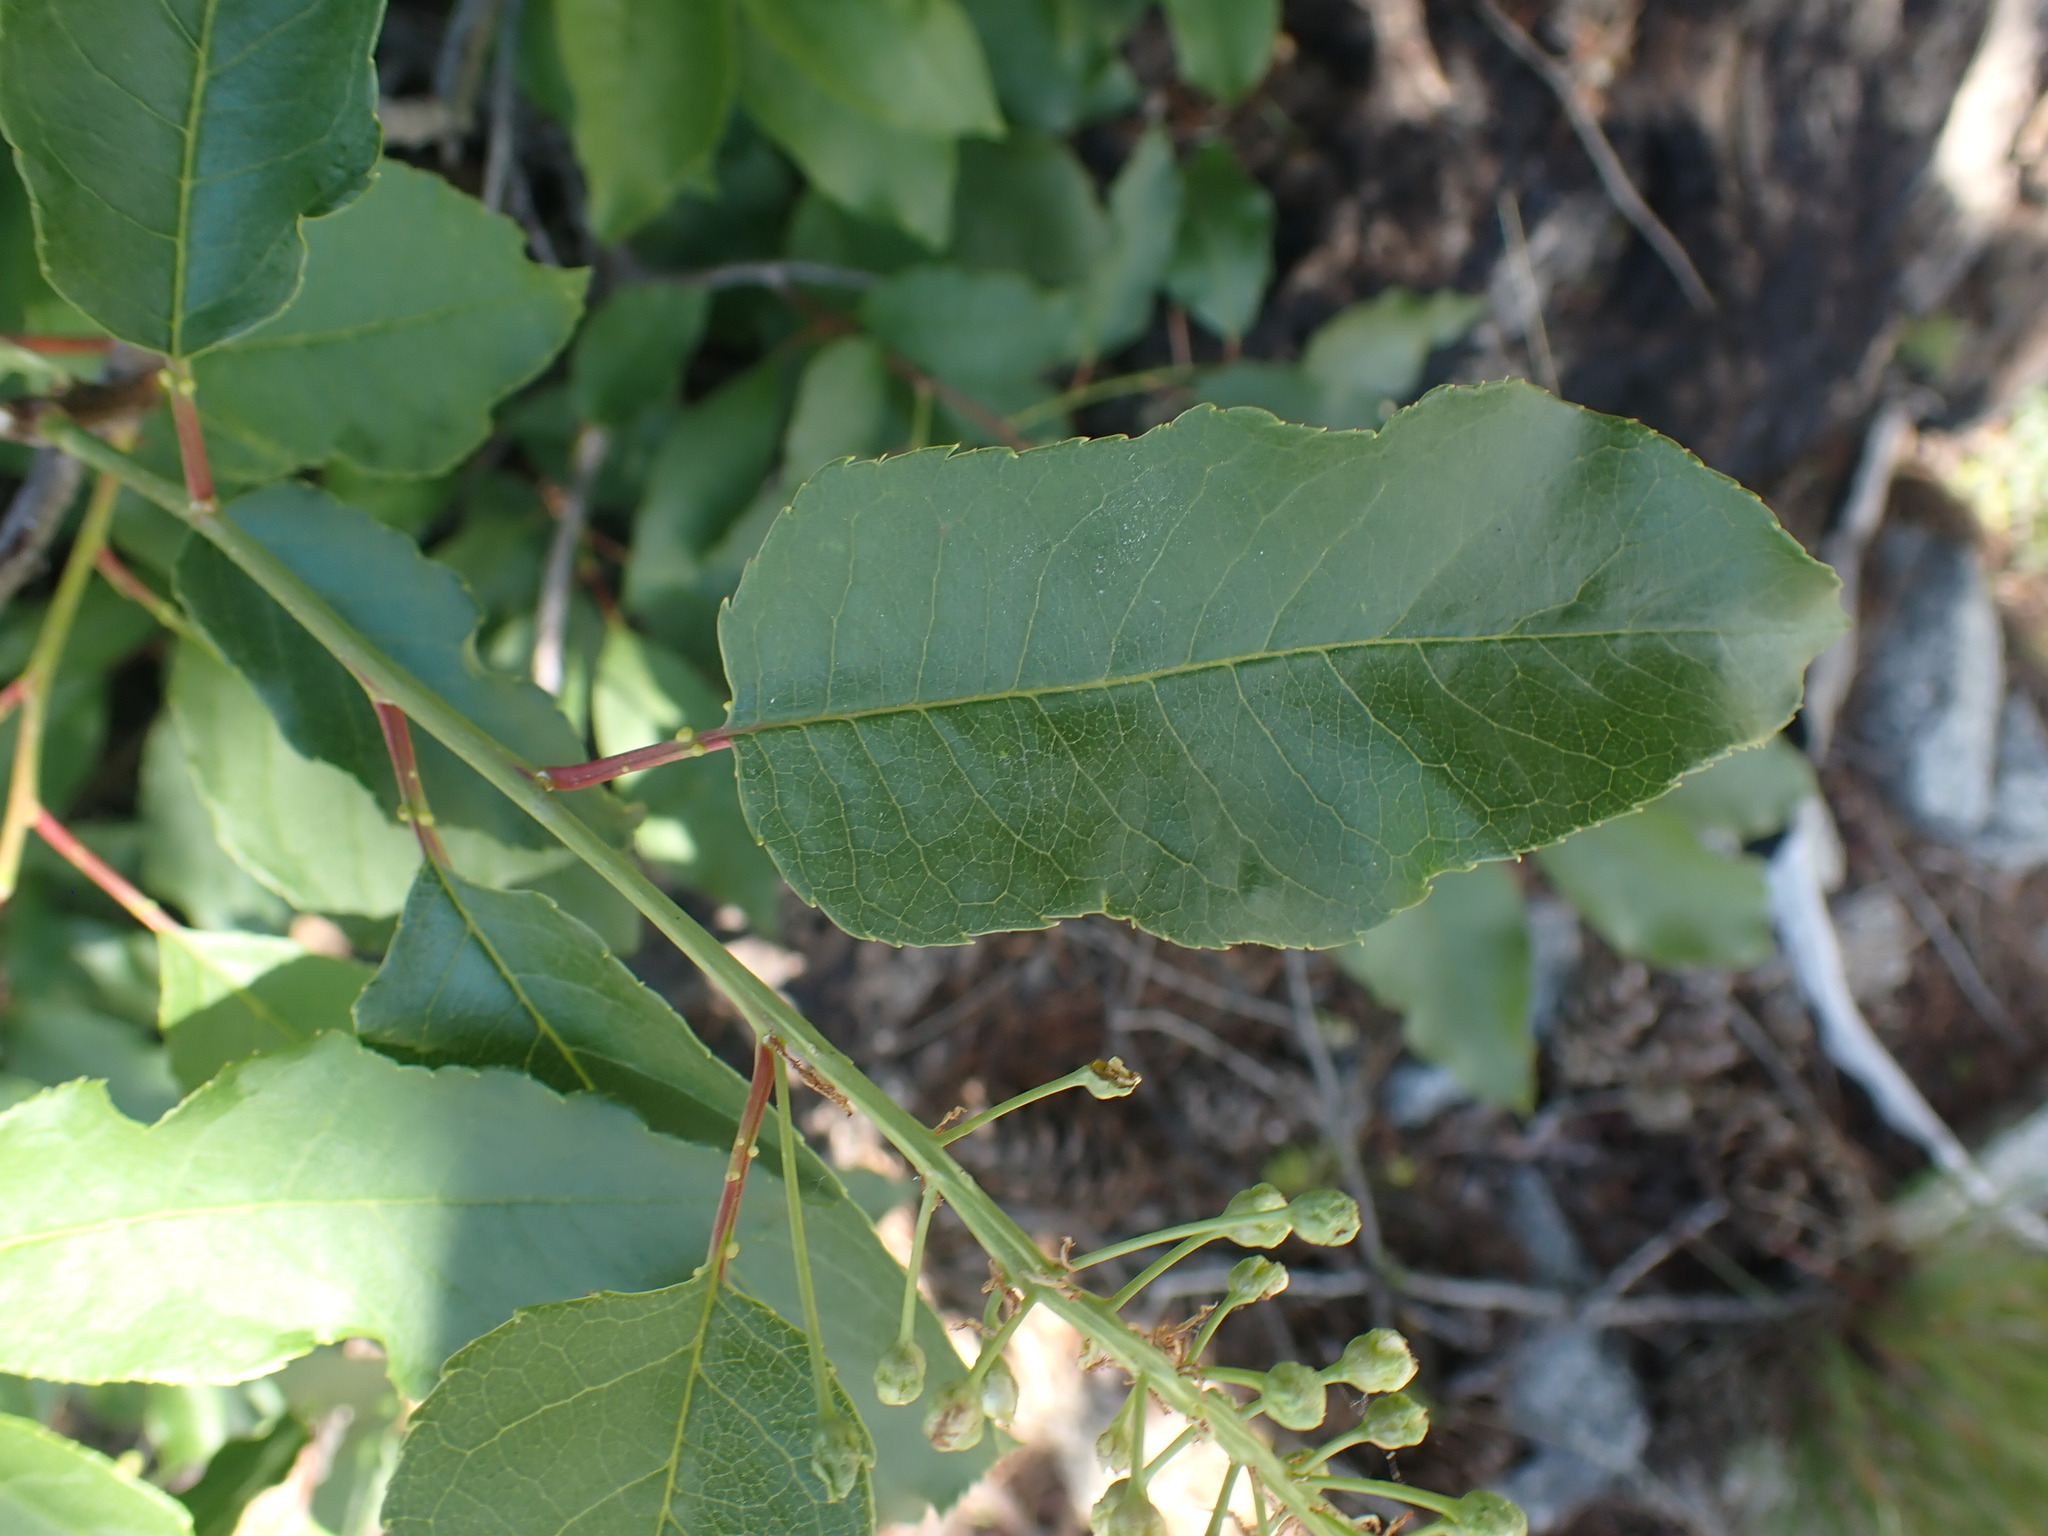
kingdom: Plantae
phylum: Tracheophyta
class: Magnoliopsida
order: Rosales
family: Rosaceae
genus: Prunus
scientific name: Prunus virginiana
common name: Chokecherry
